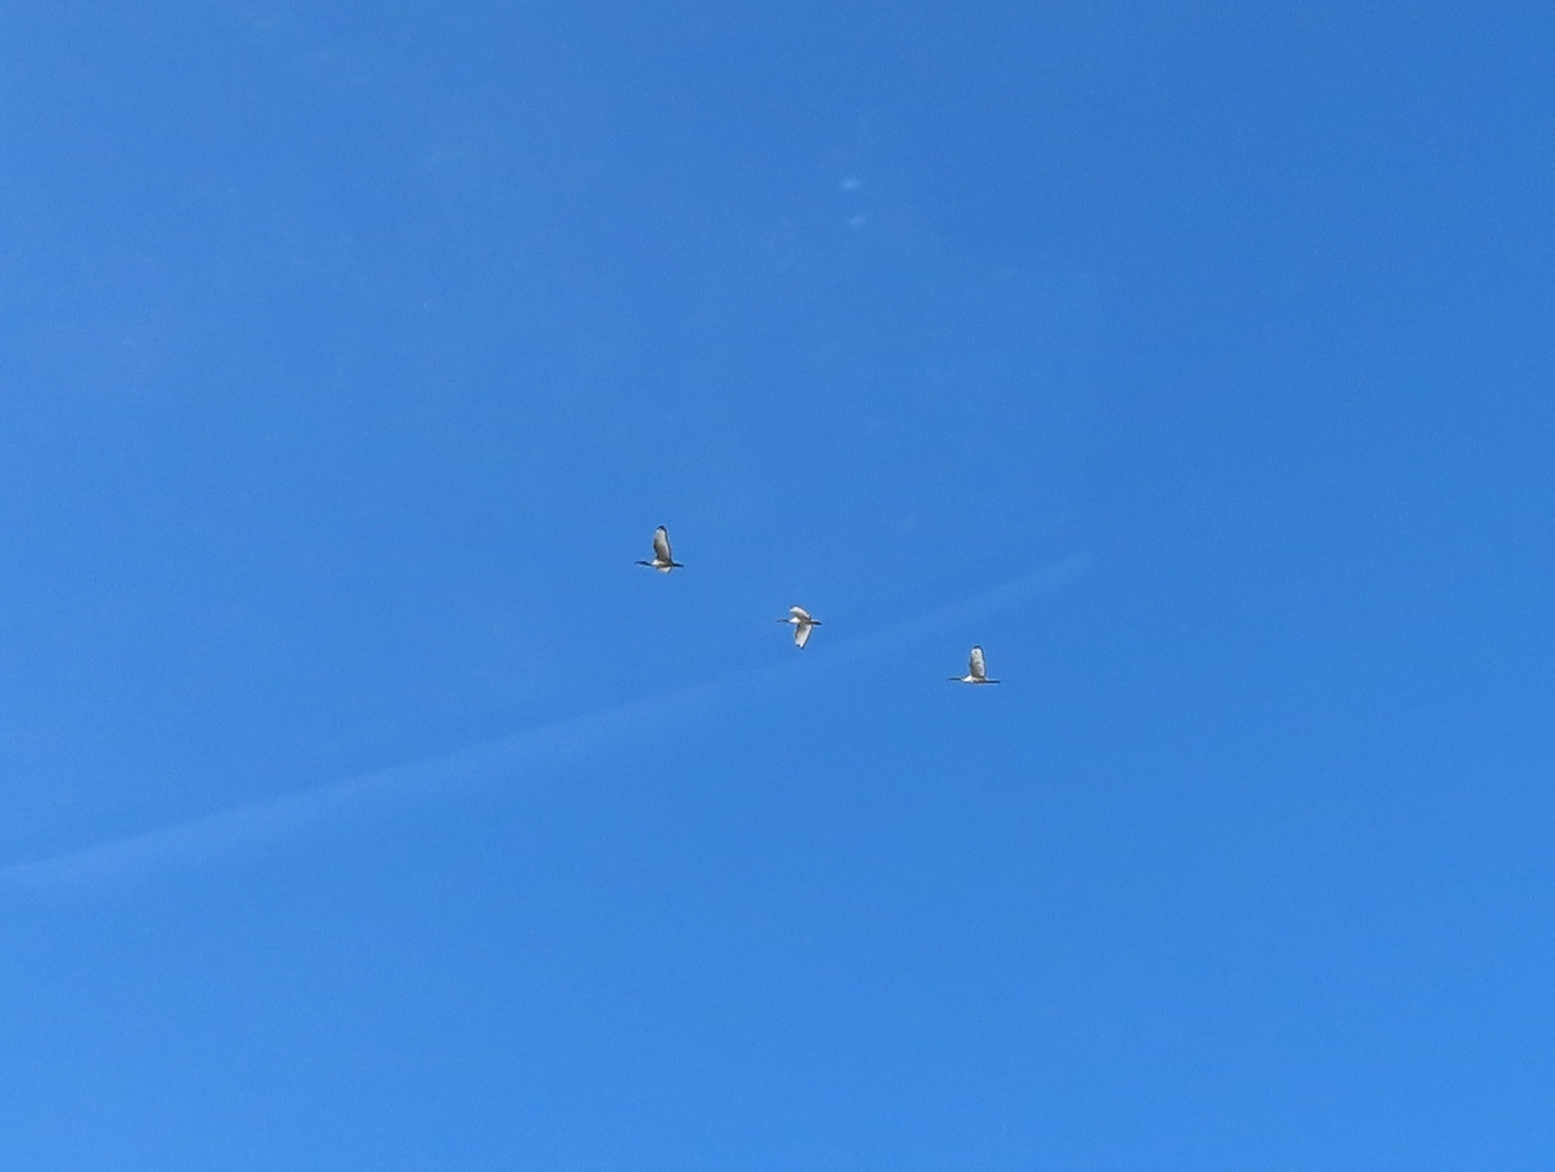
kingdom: Animalia
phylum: Chordata
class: Aves
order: Pelecaniformes
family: Threskiornithidae
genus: Threskiornis
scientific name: Threskiornis aethiopicus
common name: Sacred ibis
